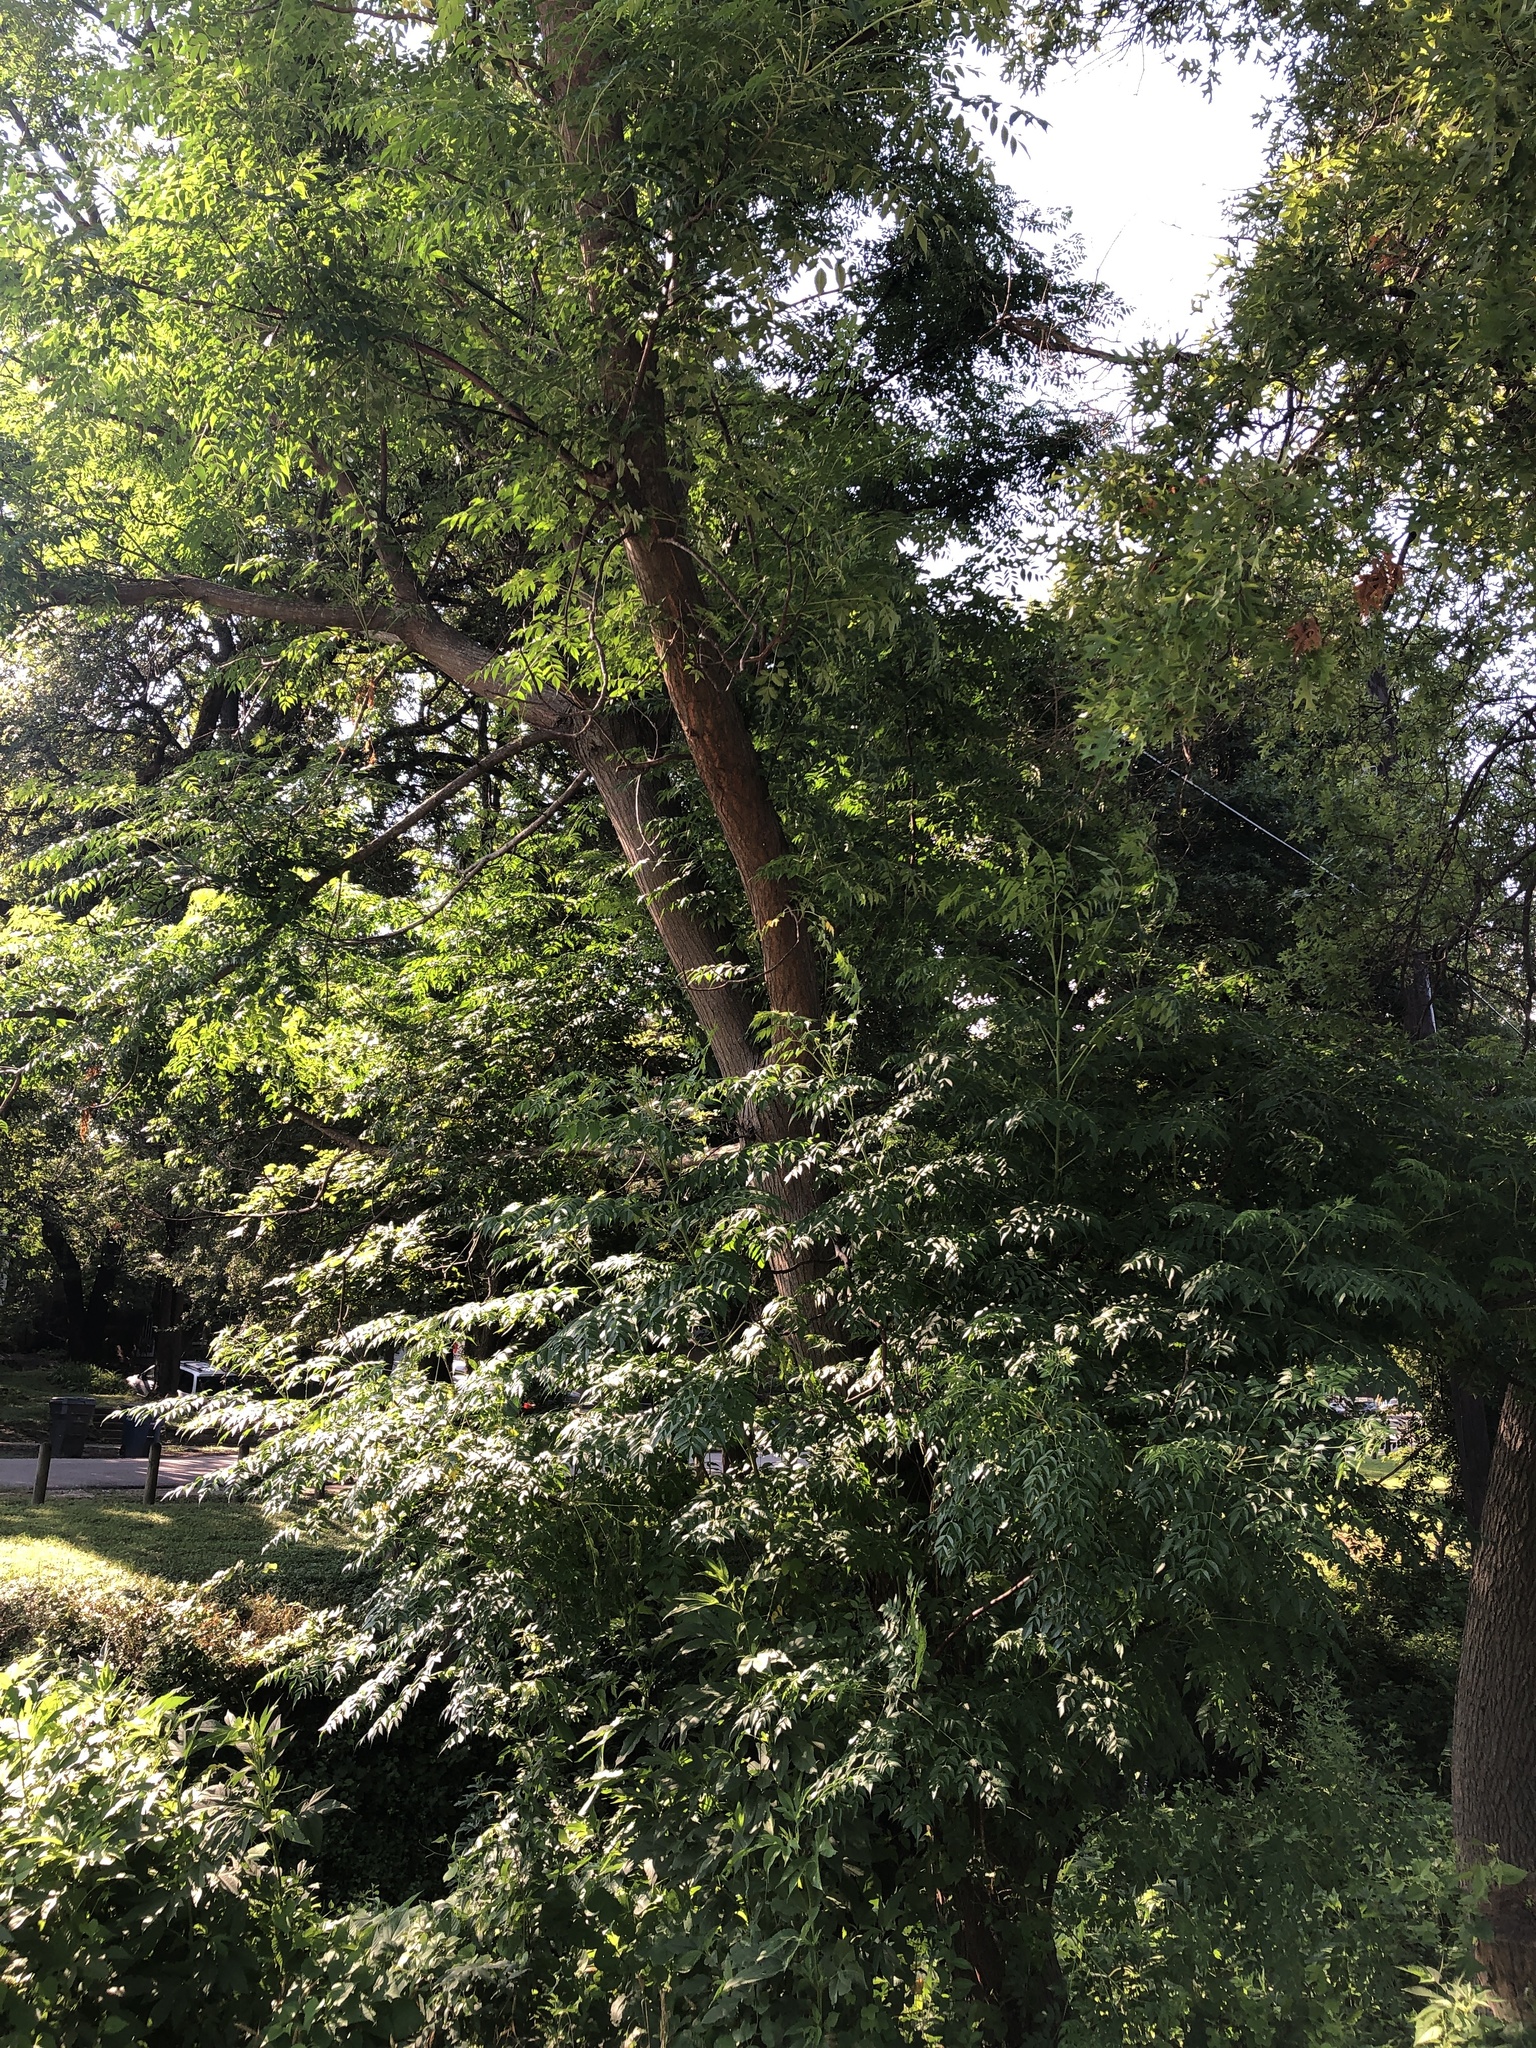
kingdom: Plantae
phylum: Tracheophyta
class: Magnoliopsida
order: Sapindales
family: Meliaceae
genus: Melia
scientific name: Melia azedarach
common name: Chinaberrytree
